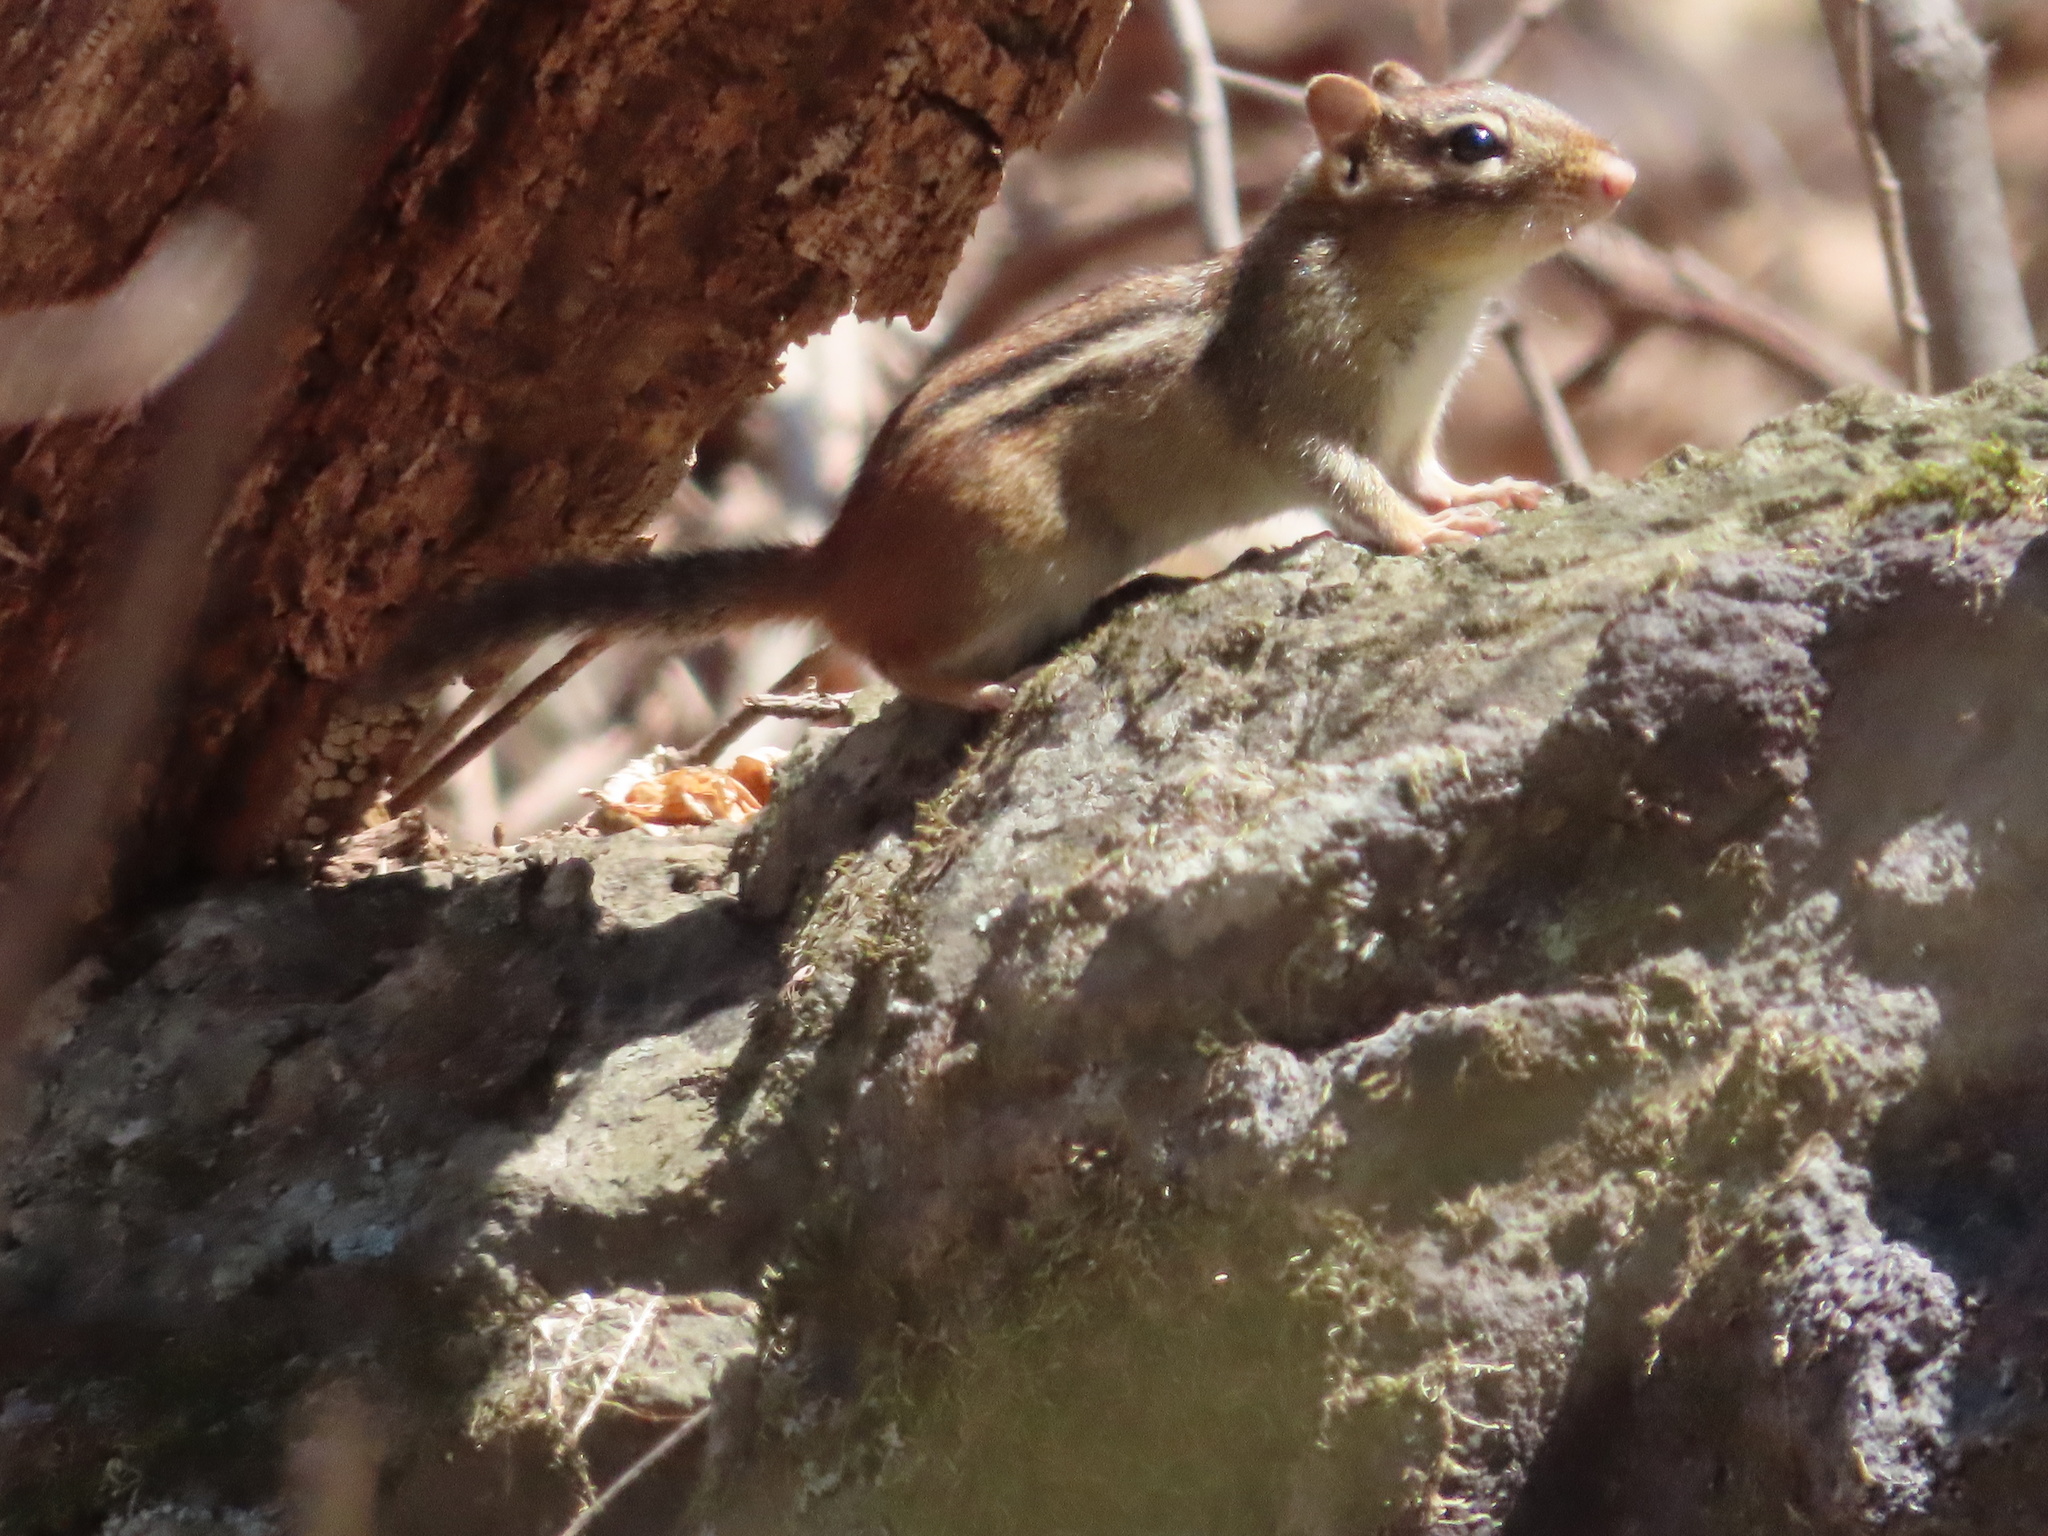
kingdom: Animalia
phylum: Chordata
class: Mammalia
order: Rodentia
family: Sciuridae
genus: Tamias
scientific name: Tamias striatus
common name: Eastern chipmunk
